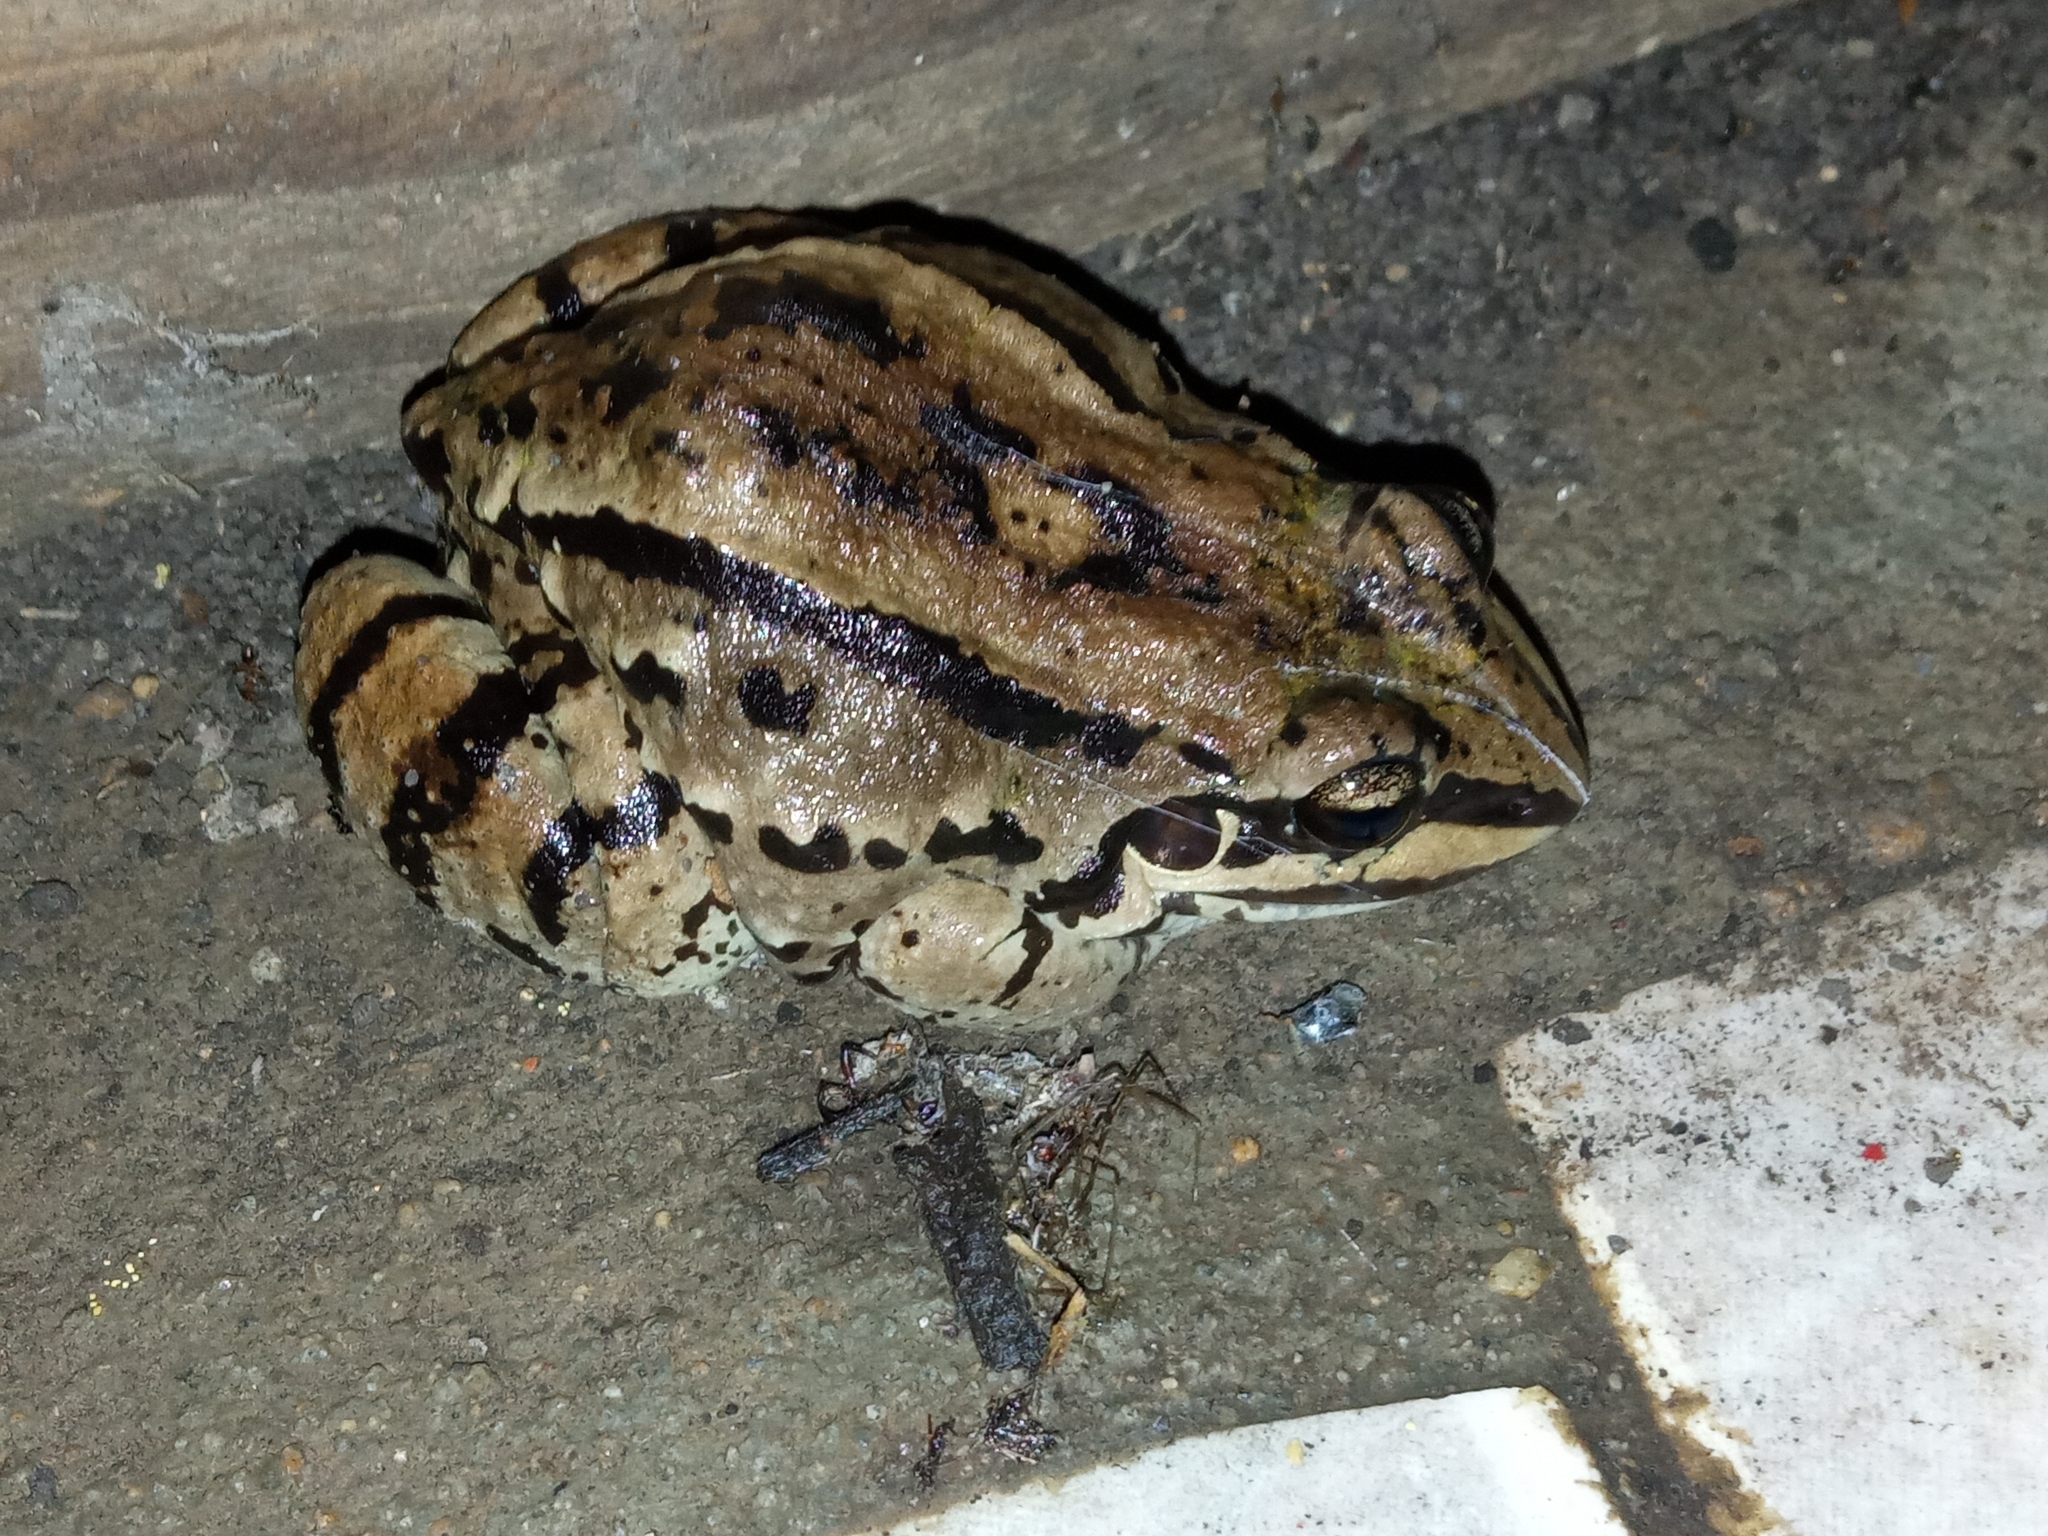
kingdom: Animalia
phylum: Chordata
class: Amphibia
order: Anura
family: Leptodactylidae
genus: Leptodactylus
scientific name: Leptodactylus mystacinus
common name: Moustached frog
